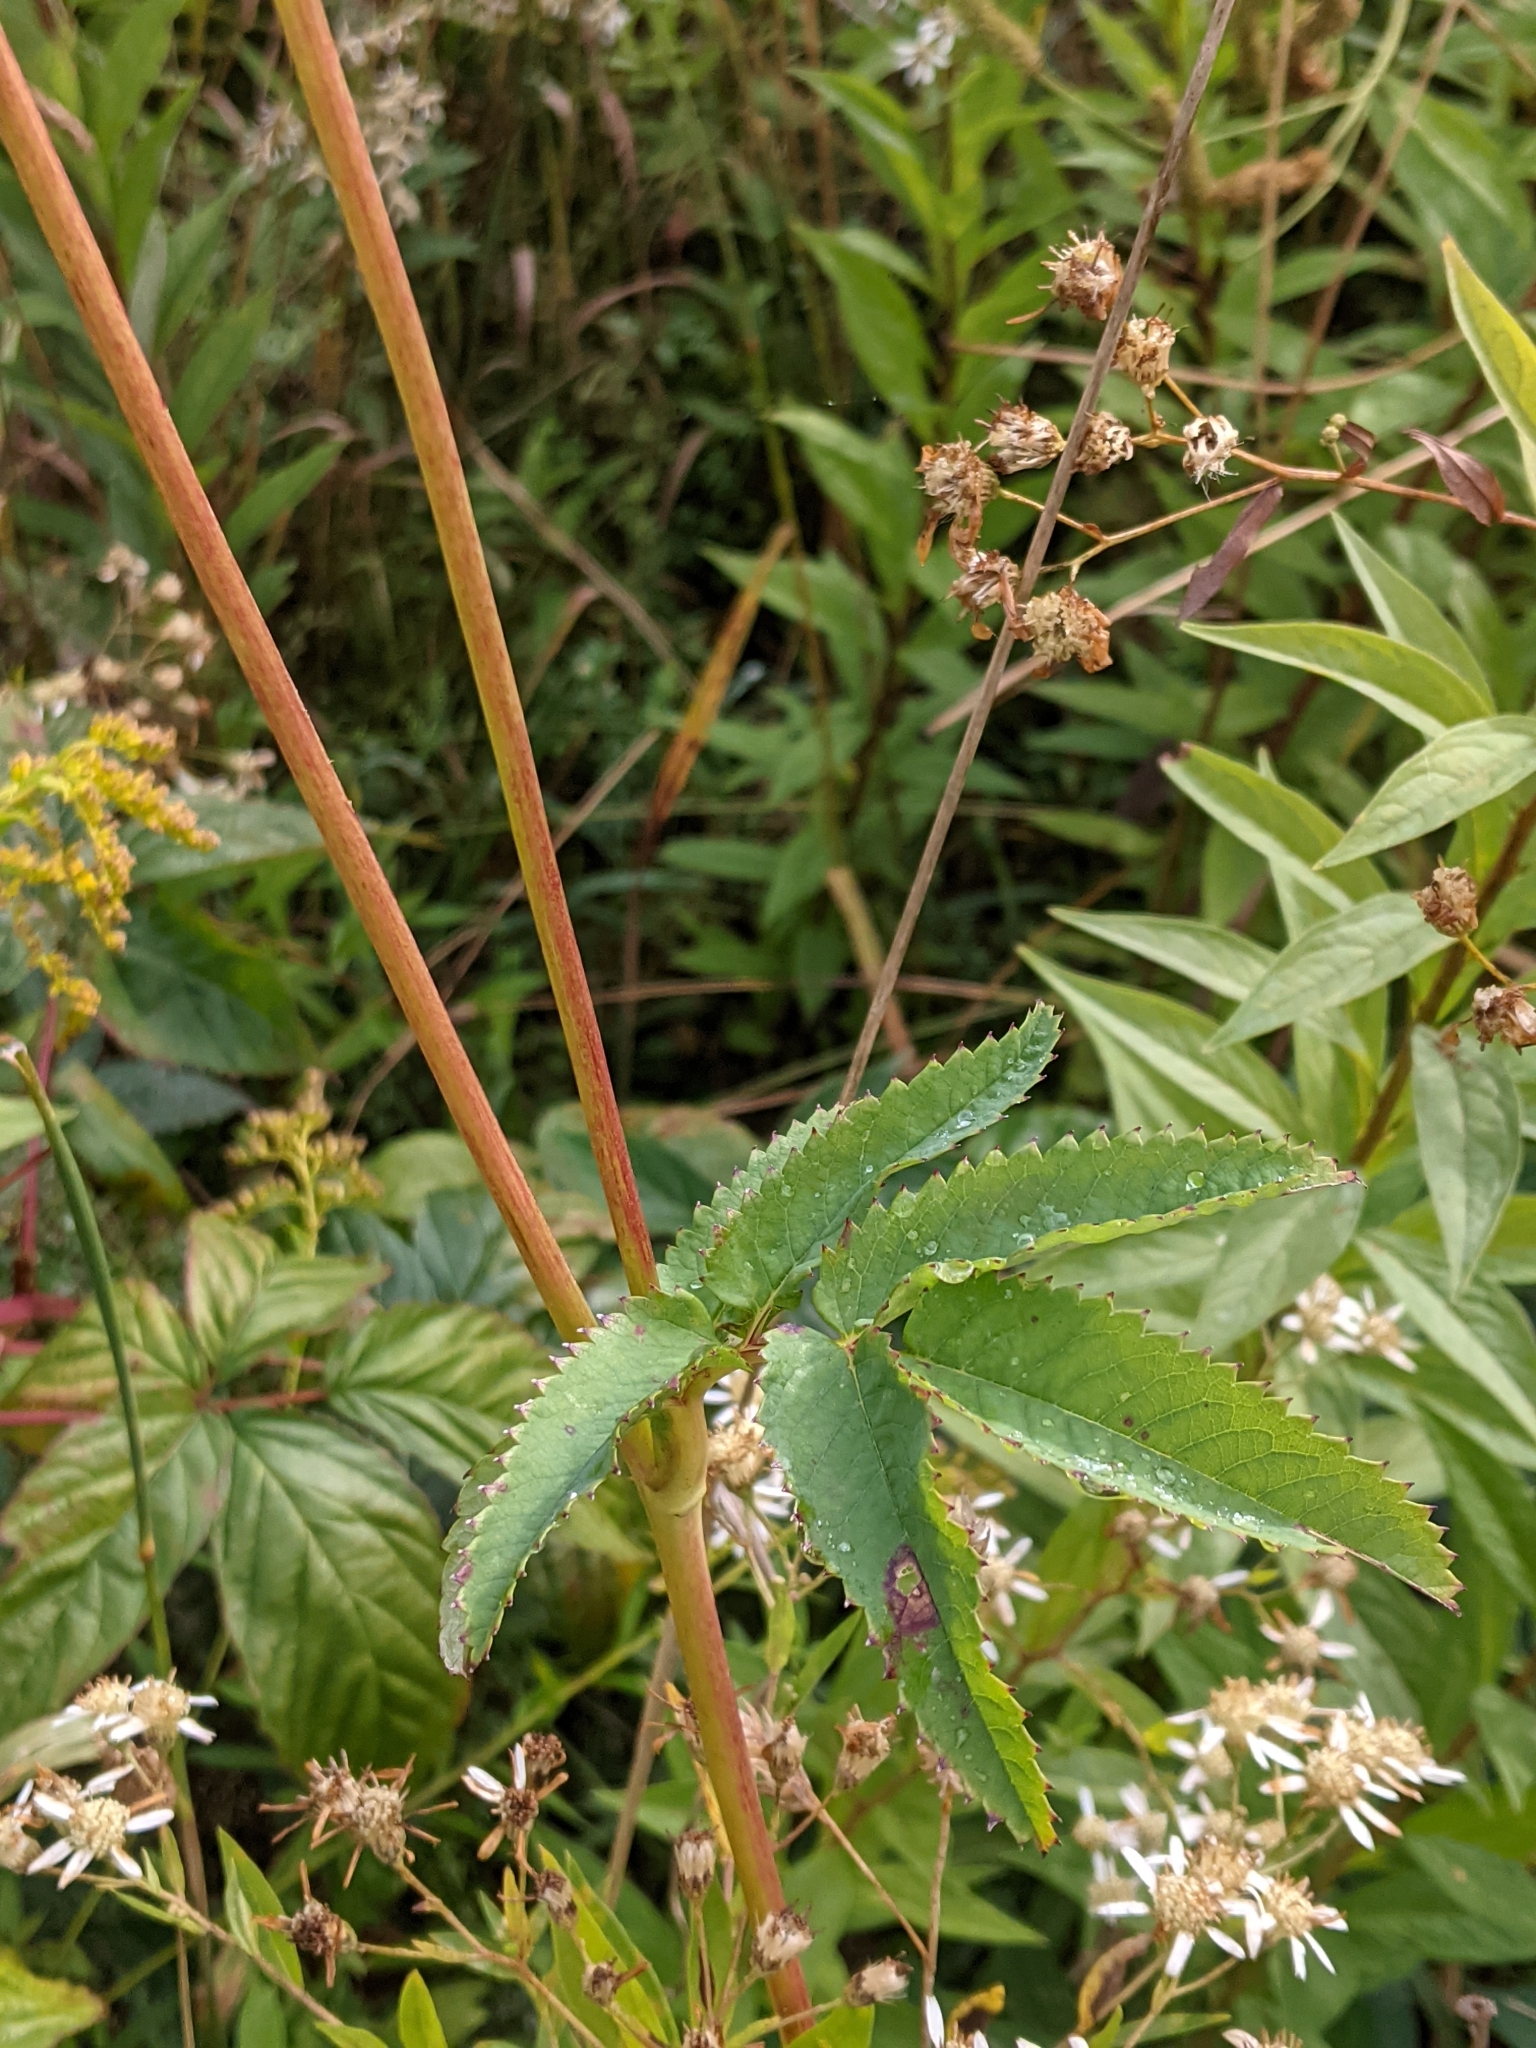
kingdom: Plantae
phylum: Tracheophyta
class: Magnoliopsida
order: Rosales
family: Rosaceae
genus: Sanguisorba
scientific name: Sanguisorba canadensis
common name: White burnet
